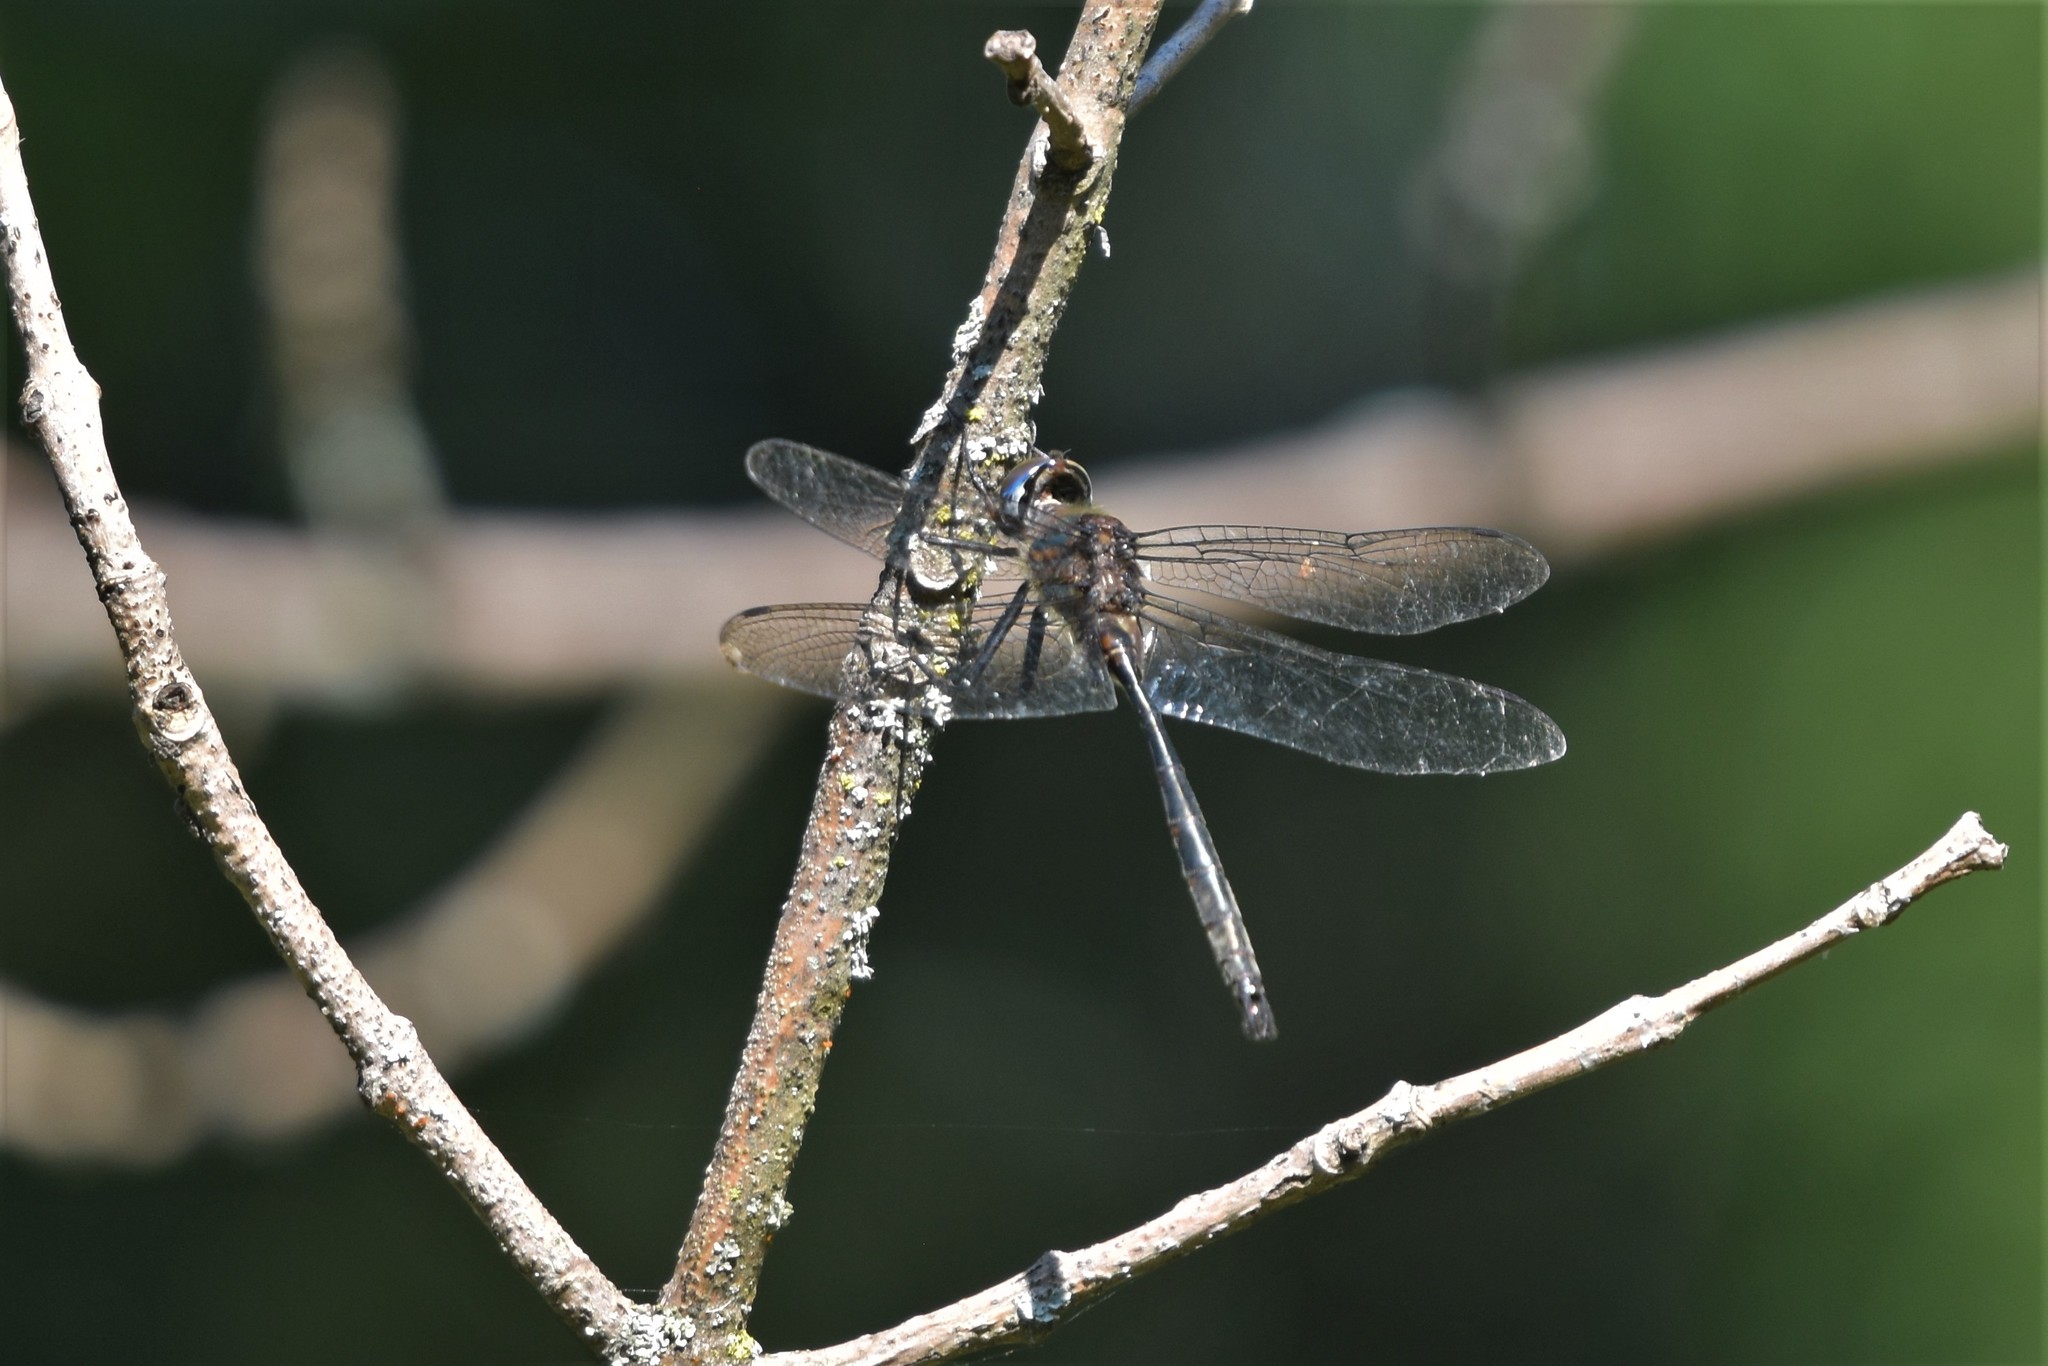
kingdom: Animalia
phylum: Arthropoda
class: Insecta
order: Odonata
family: Corduliidae
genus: Somatochlora
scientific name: Somatochlora williamsoni
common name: Williamson's emerald
